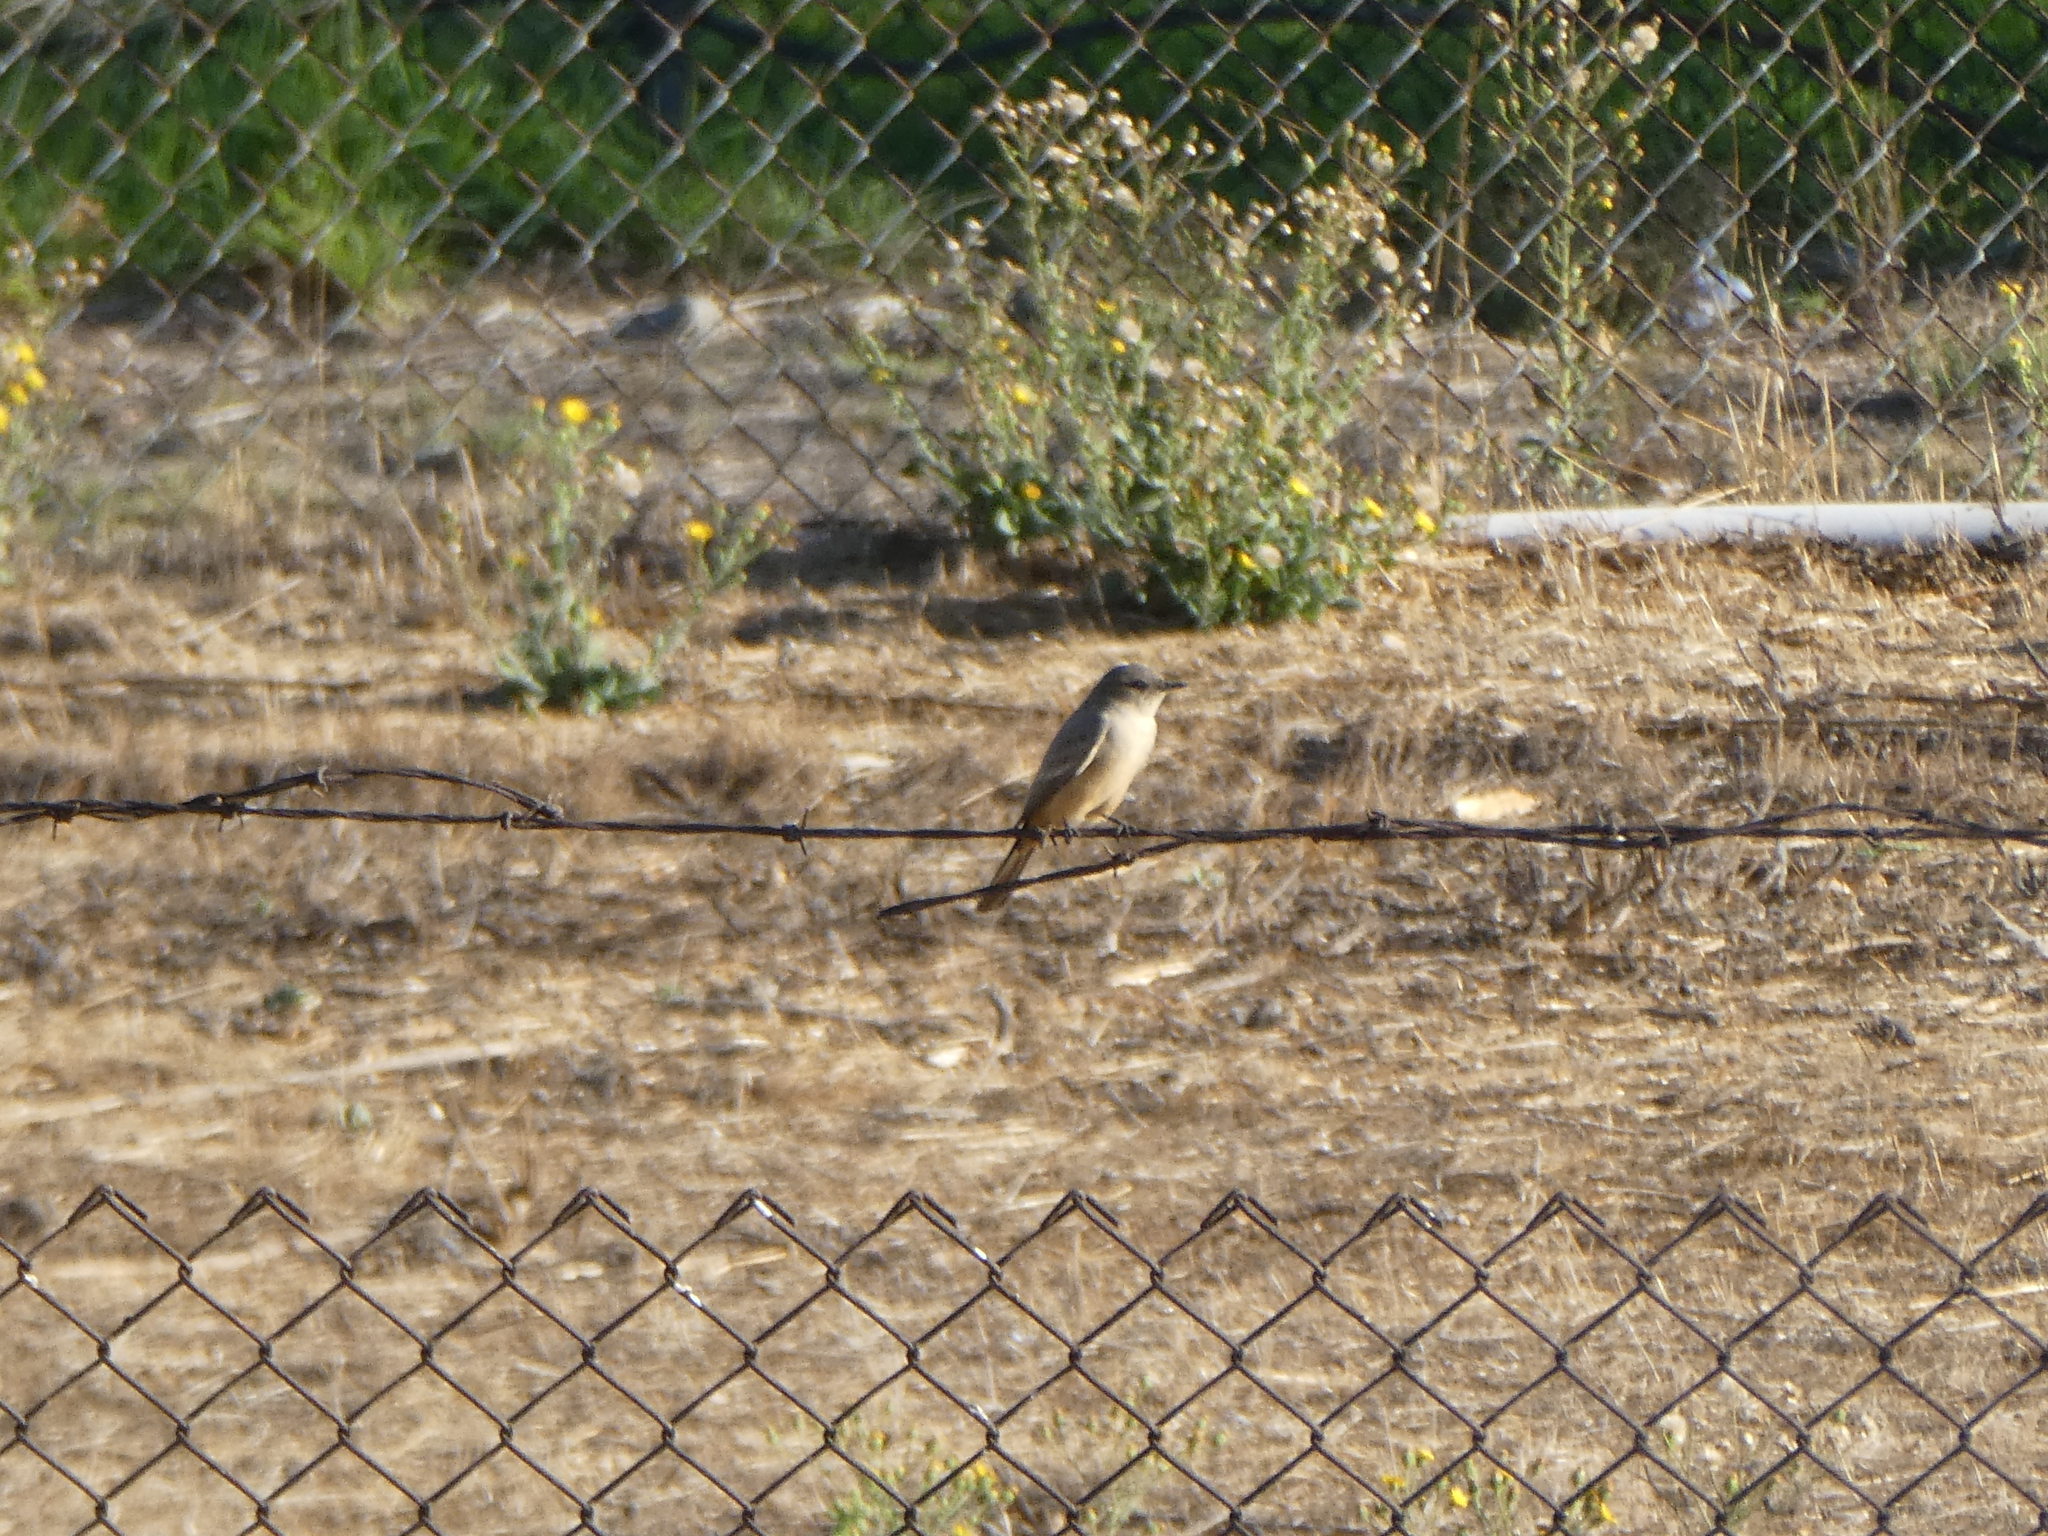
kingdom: Animalia
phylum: Chordata
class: Aves
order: Passeriformes
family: Tyrannidae
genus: Sayornis
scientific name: Sayornis saya
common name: Say's phoebe
